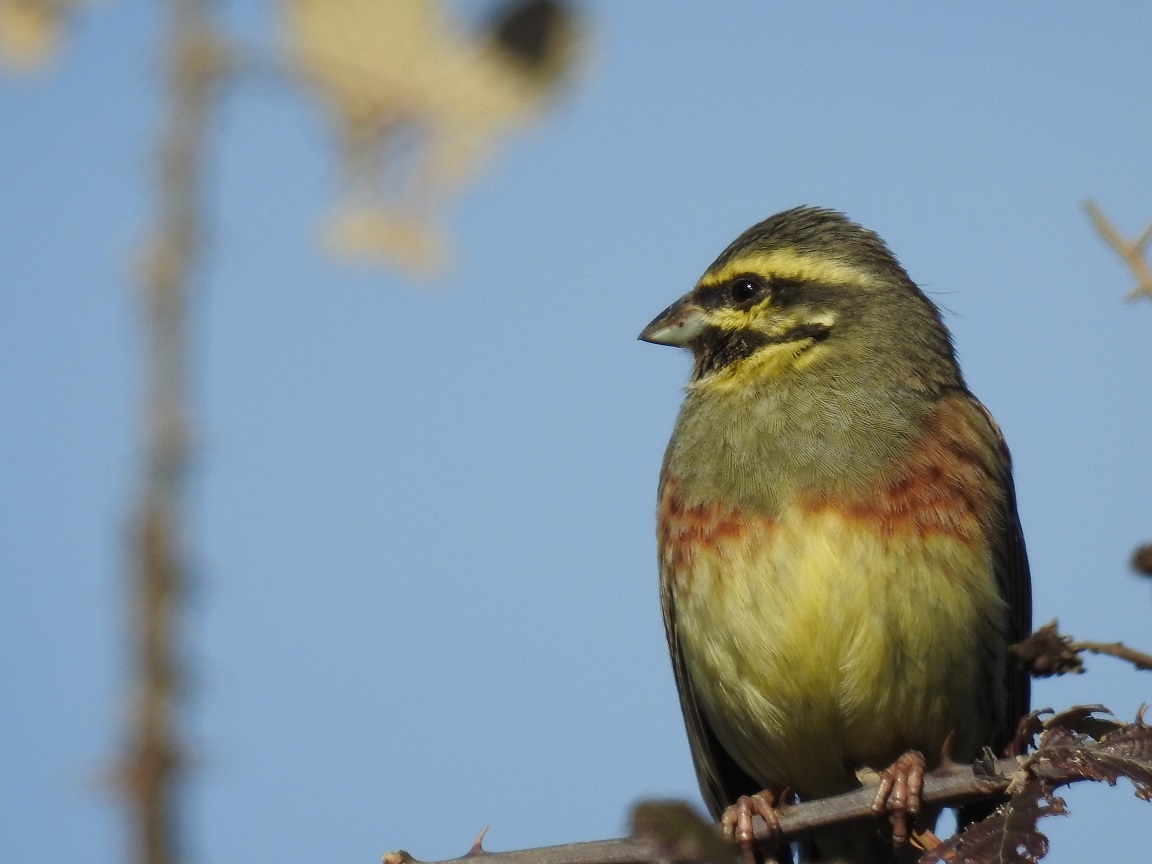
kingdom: Animalia
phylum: Chordata
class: Aves
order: Passeriformes
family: Emberizidae
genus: Emberiza
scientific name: Emberiza cirlus
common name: Cirl bunting
